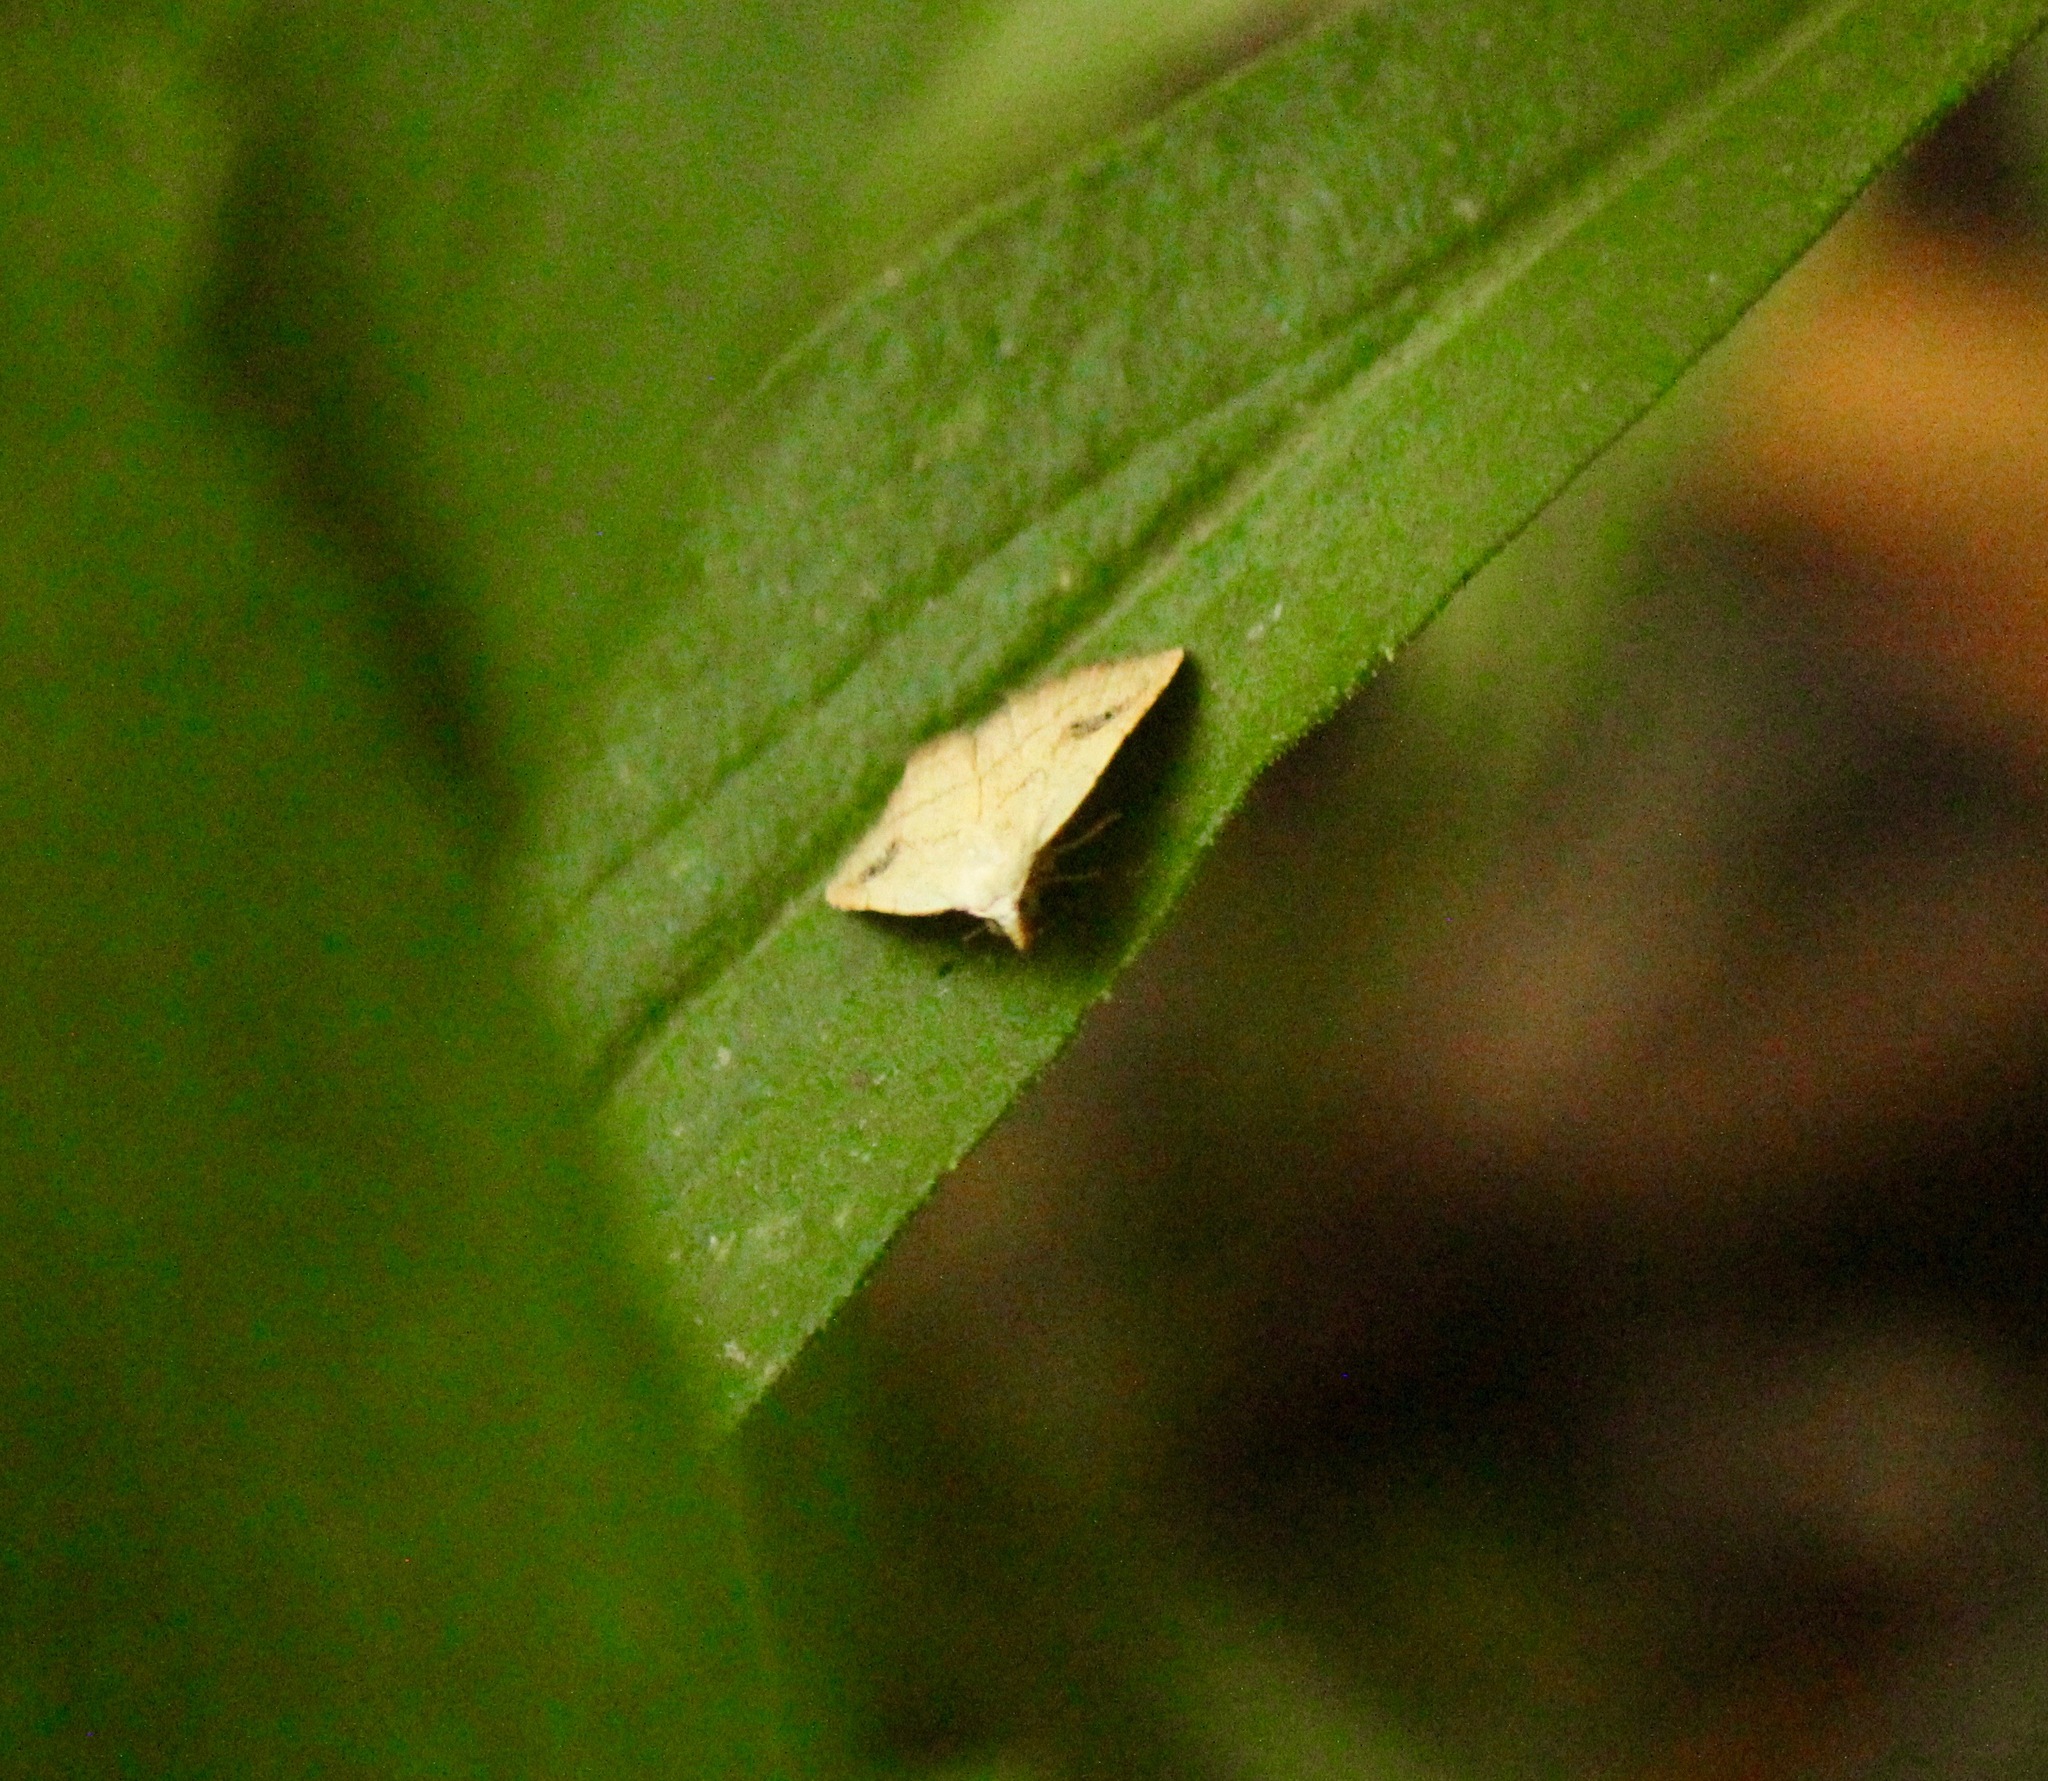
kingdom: Animalia
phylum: Arthropoda
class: Insecta
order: Lepidoptera
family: Erebidae
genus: Rivula
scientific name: Rivula propinqualis
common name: Spotted grass moth
